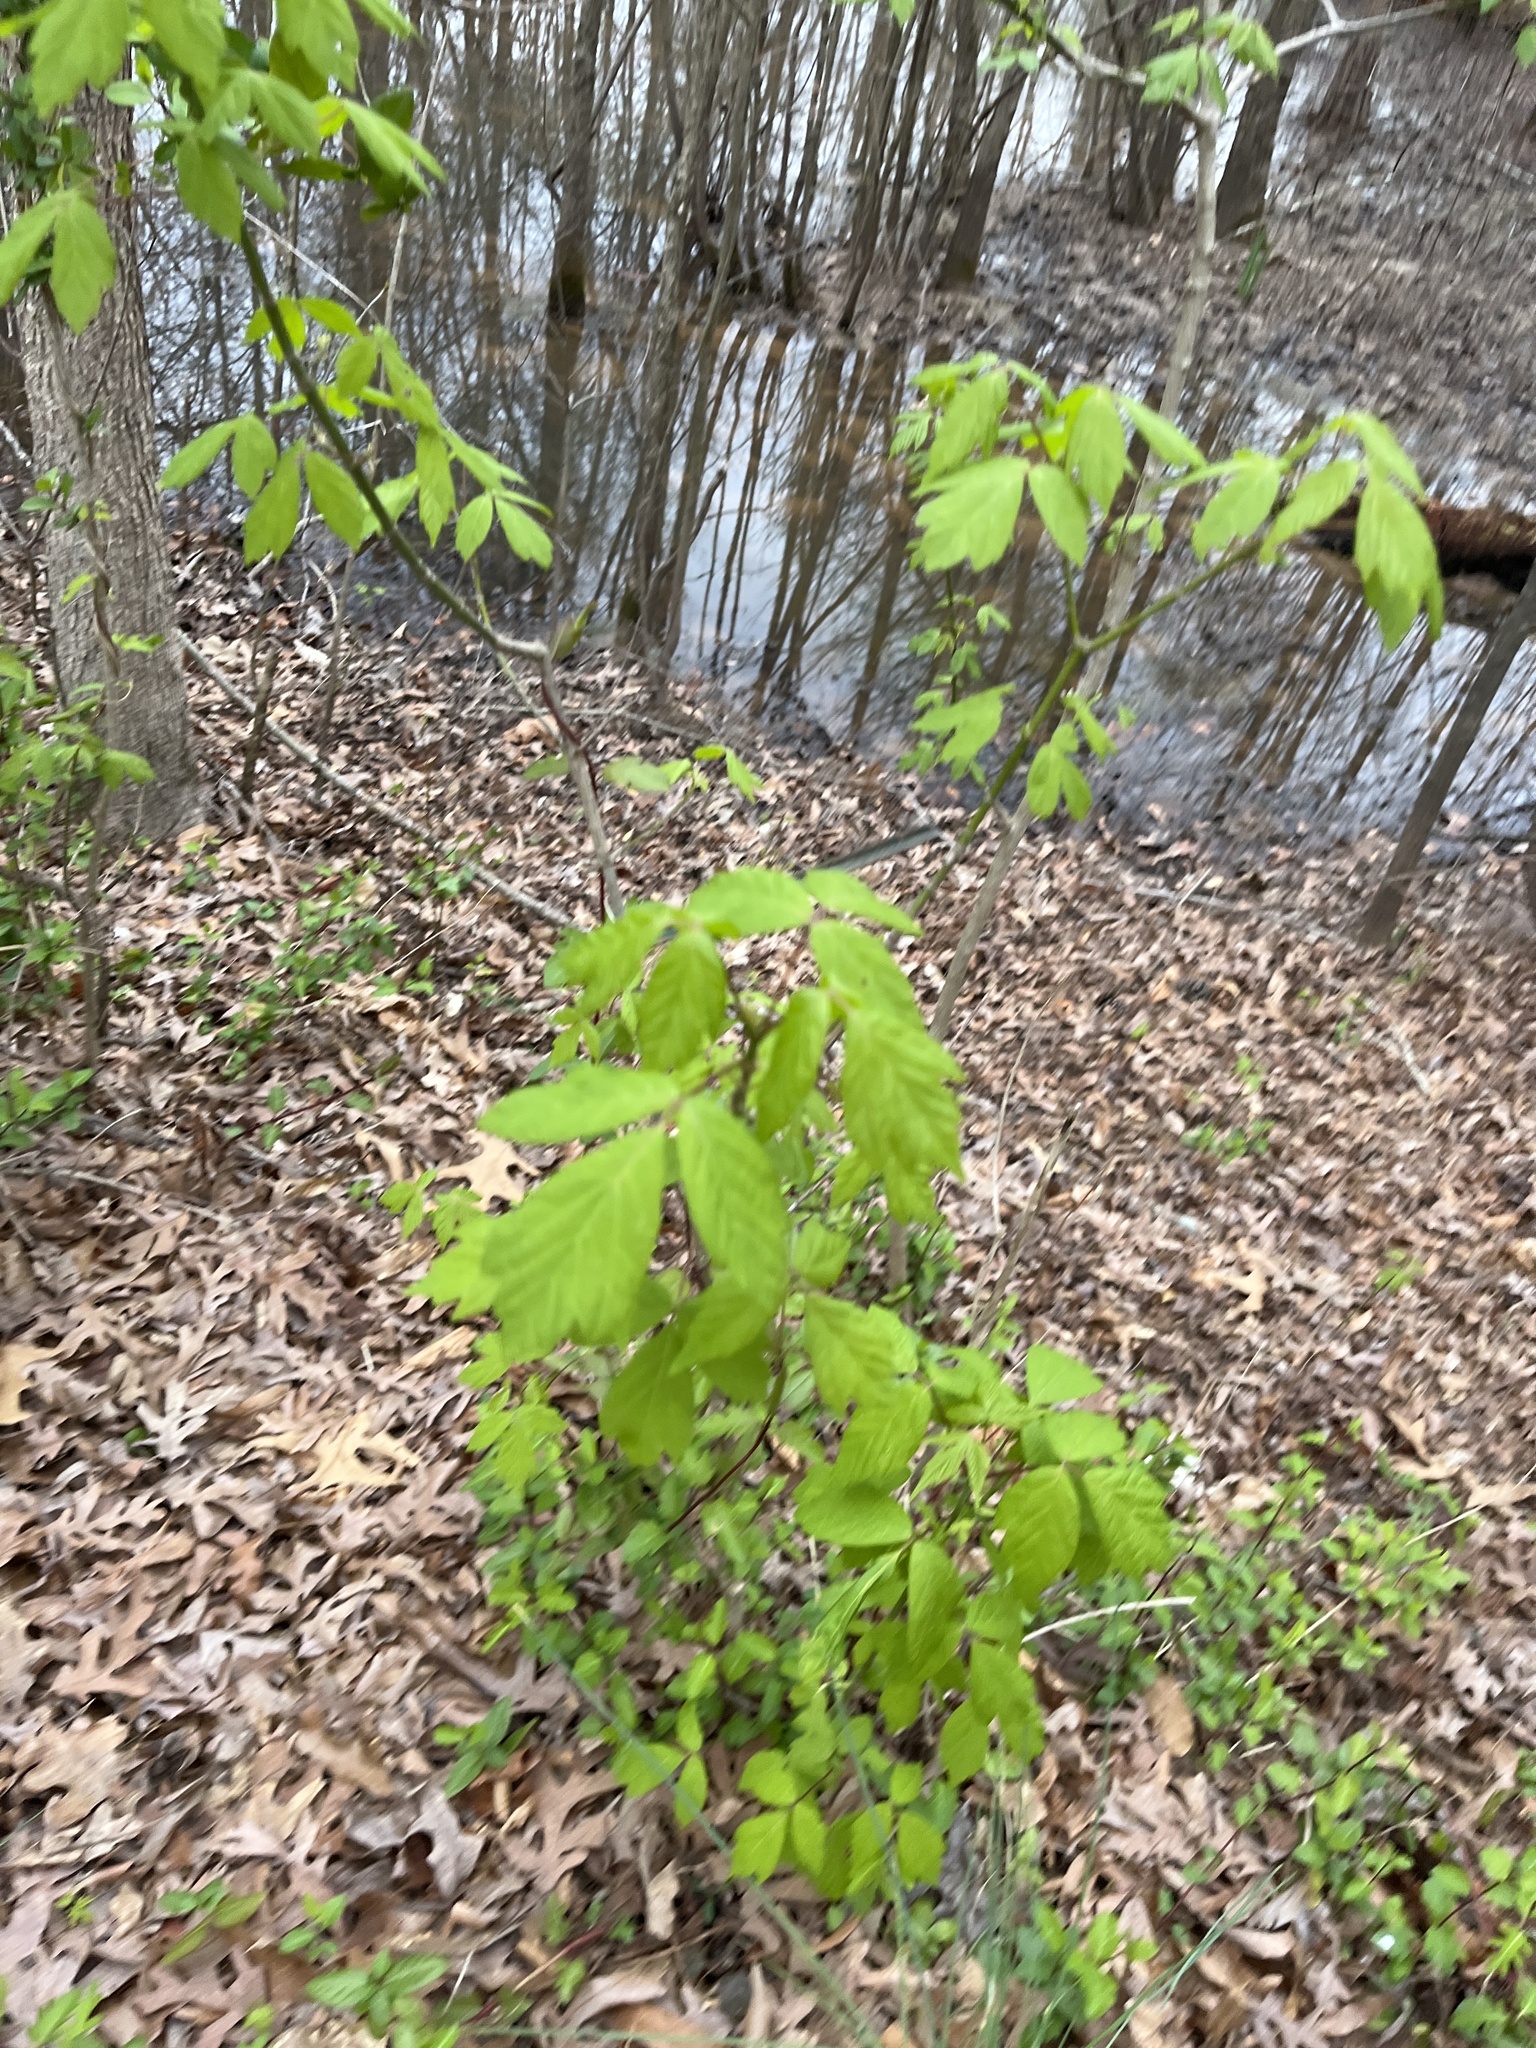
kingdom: Plantae
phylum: Tracheophyta
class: Magnoliopsida
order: Sapindales
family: Sapindaceae
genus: Acer
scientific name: Acer negundo
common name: Ashleaf maple
